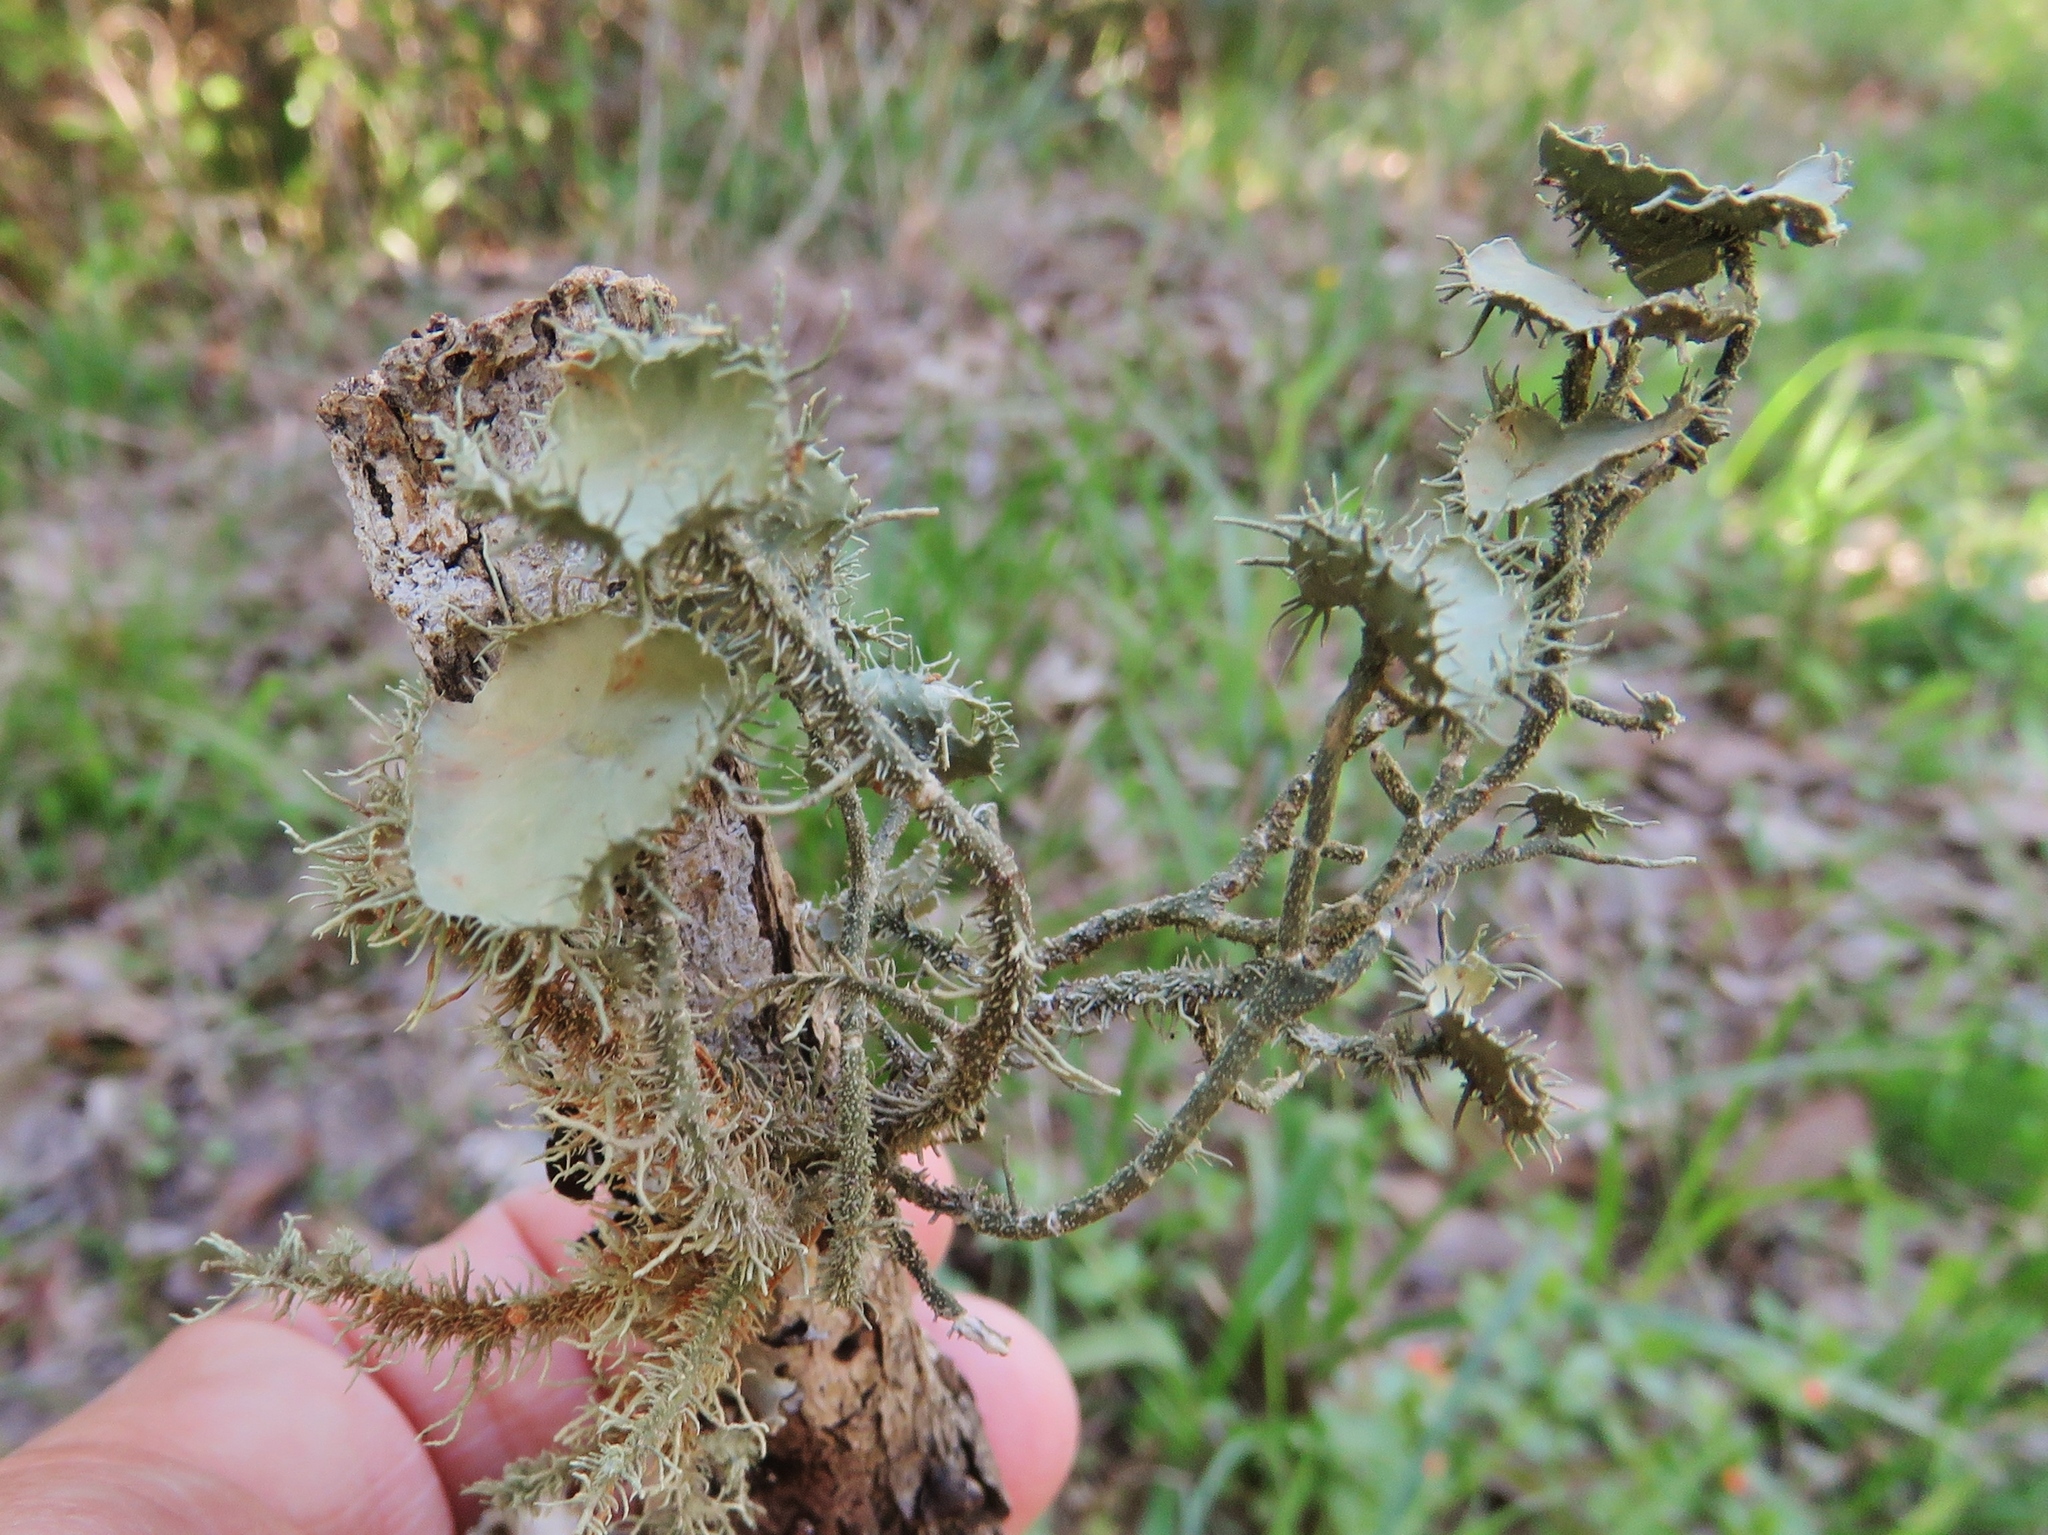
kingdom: Fungi
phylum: Ascomycota
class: Lecanoromycetes
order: Lecanorales
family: Parmeliaceae
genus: Usnea
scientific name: Usnea strigosa
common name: Bushy beard lichen
